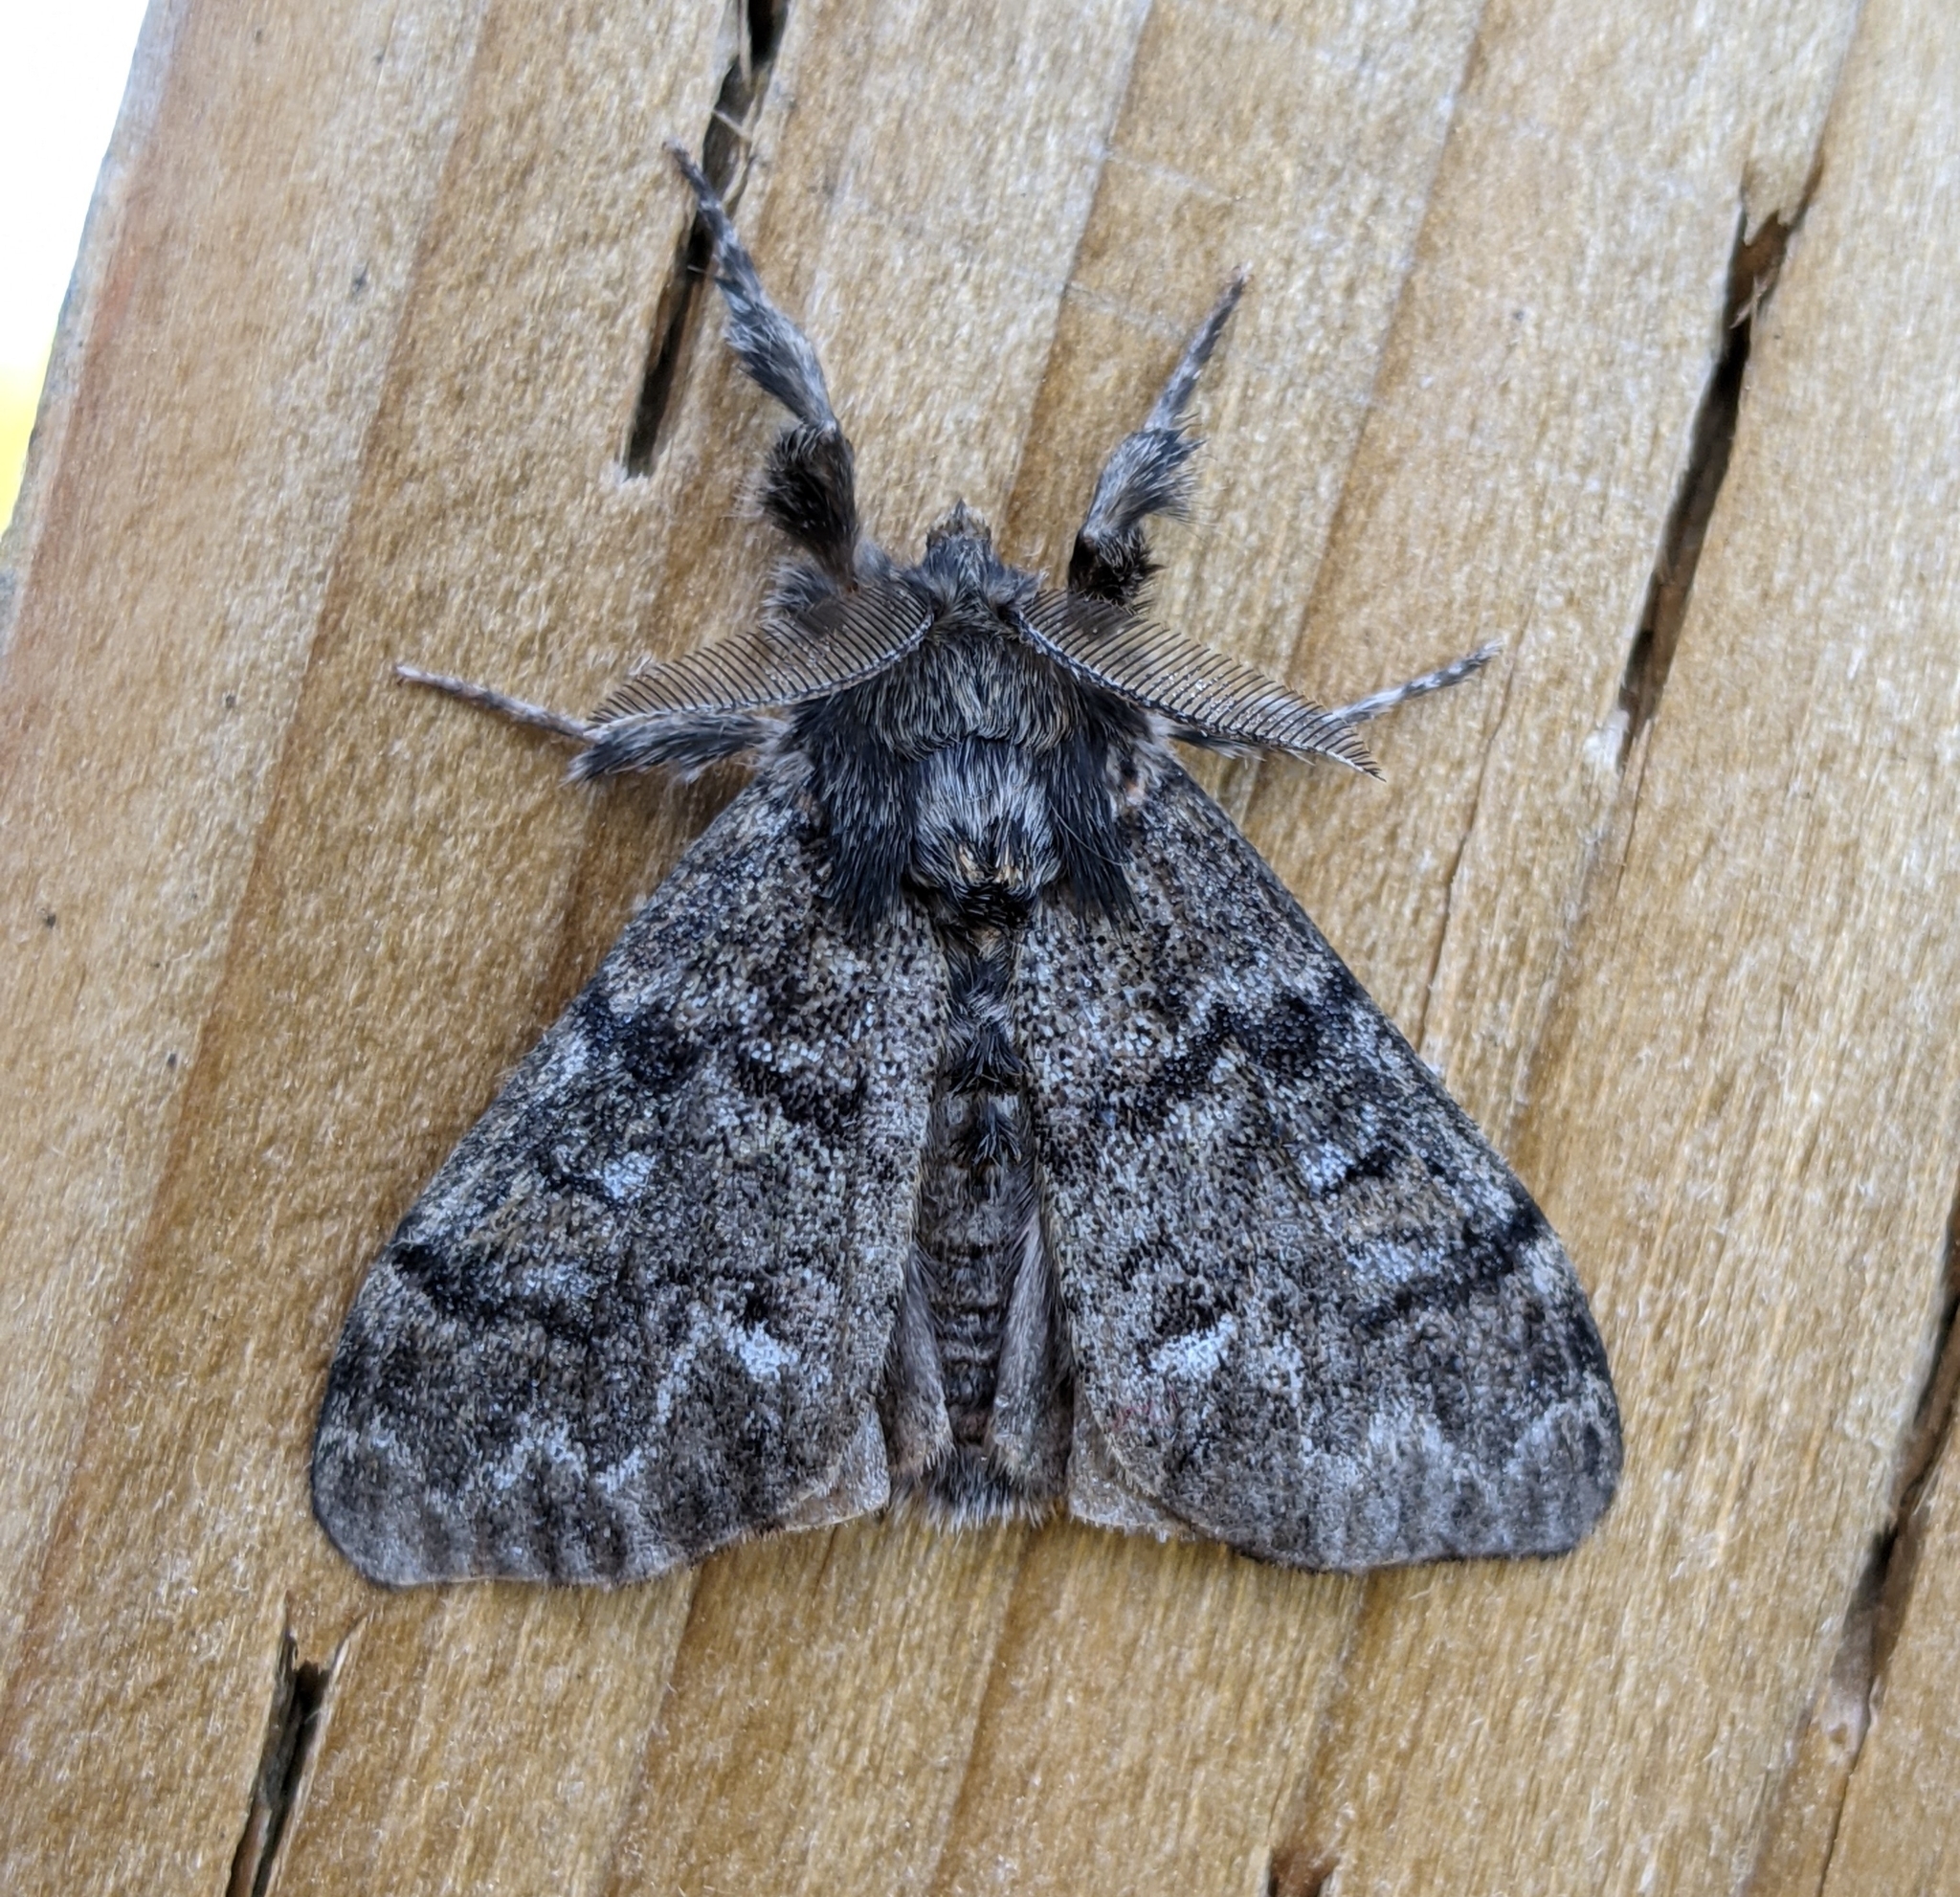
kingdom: Animalia
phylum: Arthropoda
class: Insecta
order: Lepidoptera
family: Erebidae
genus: Dasychira
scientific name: Dasychira grisefacta
